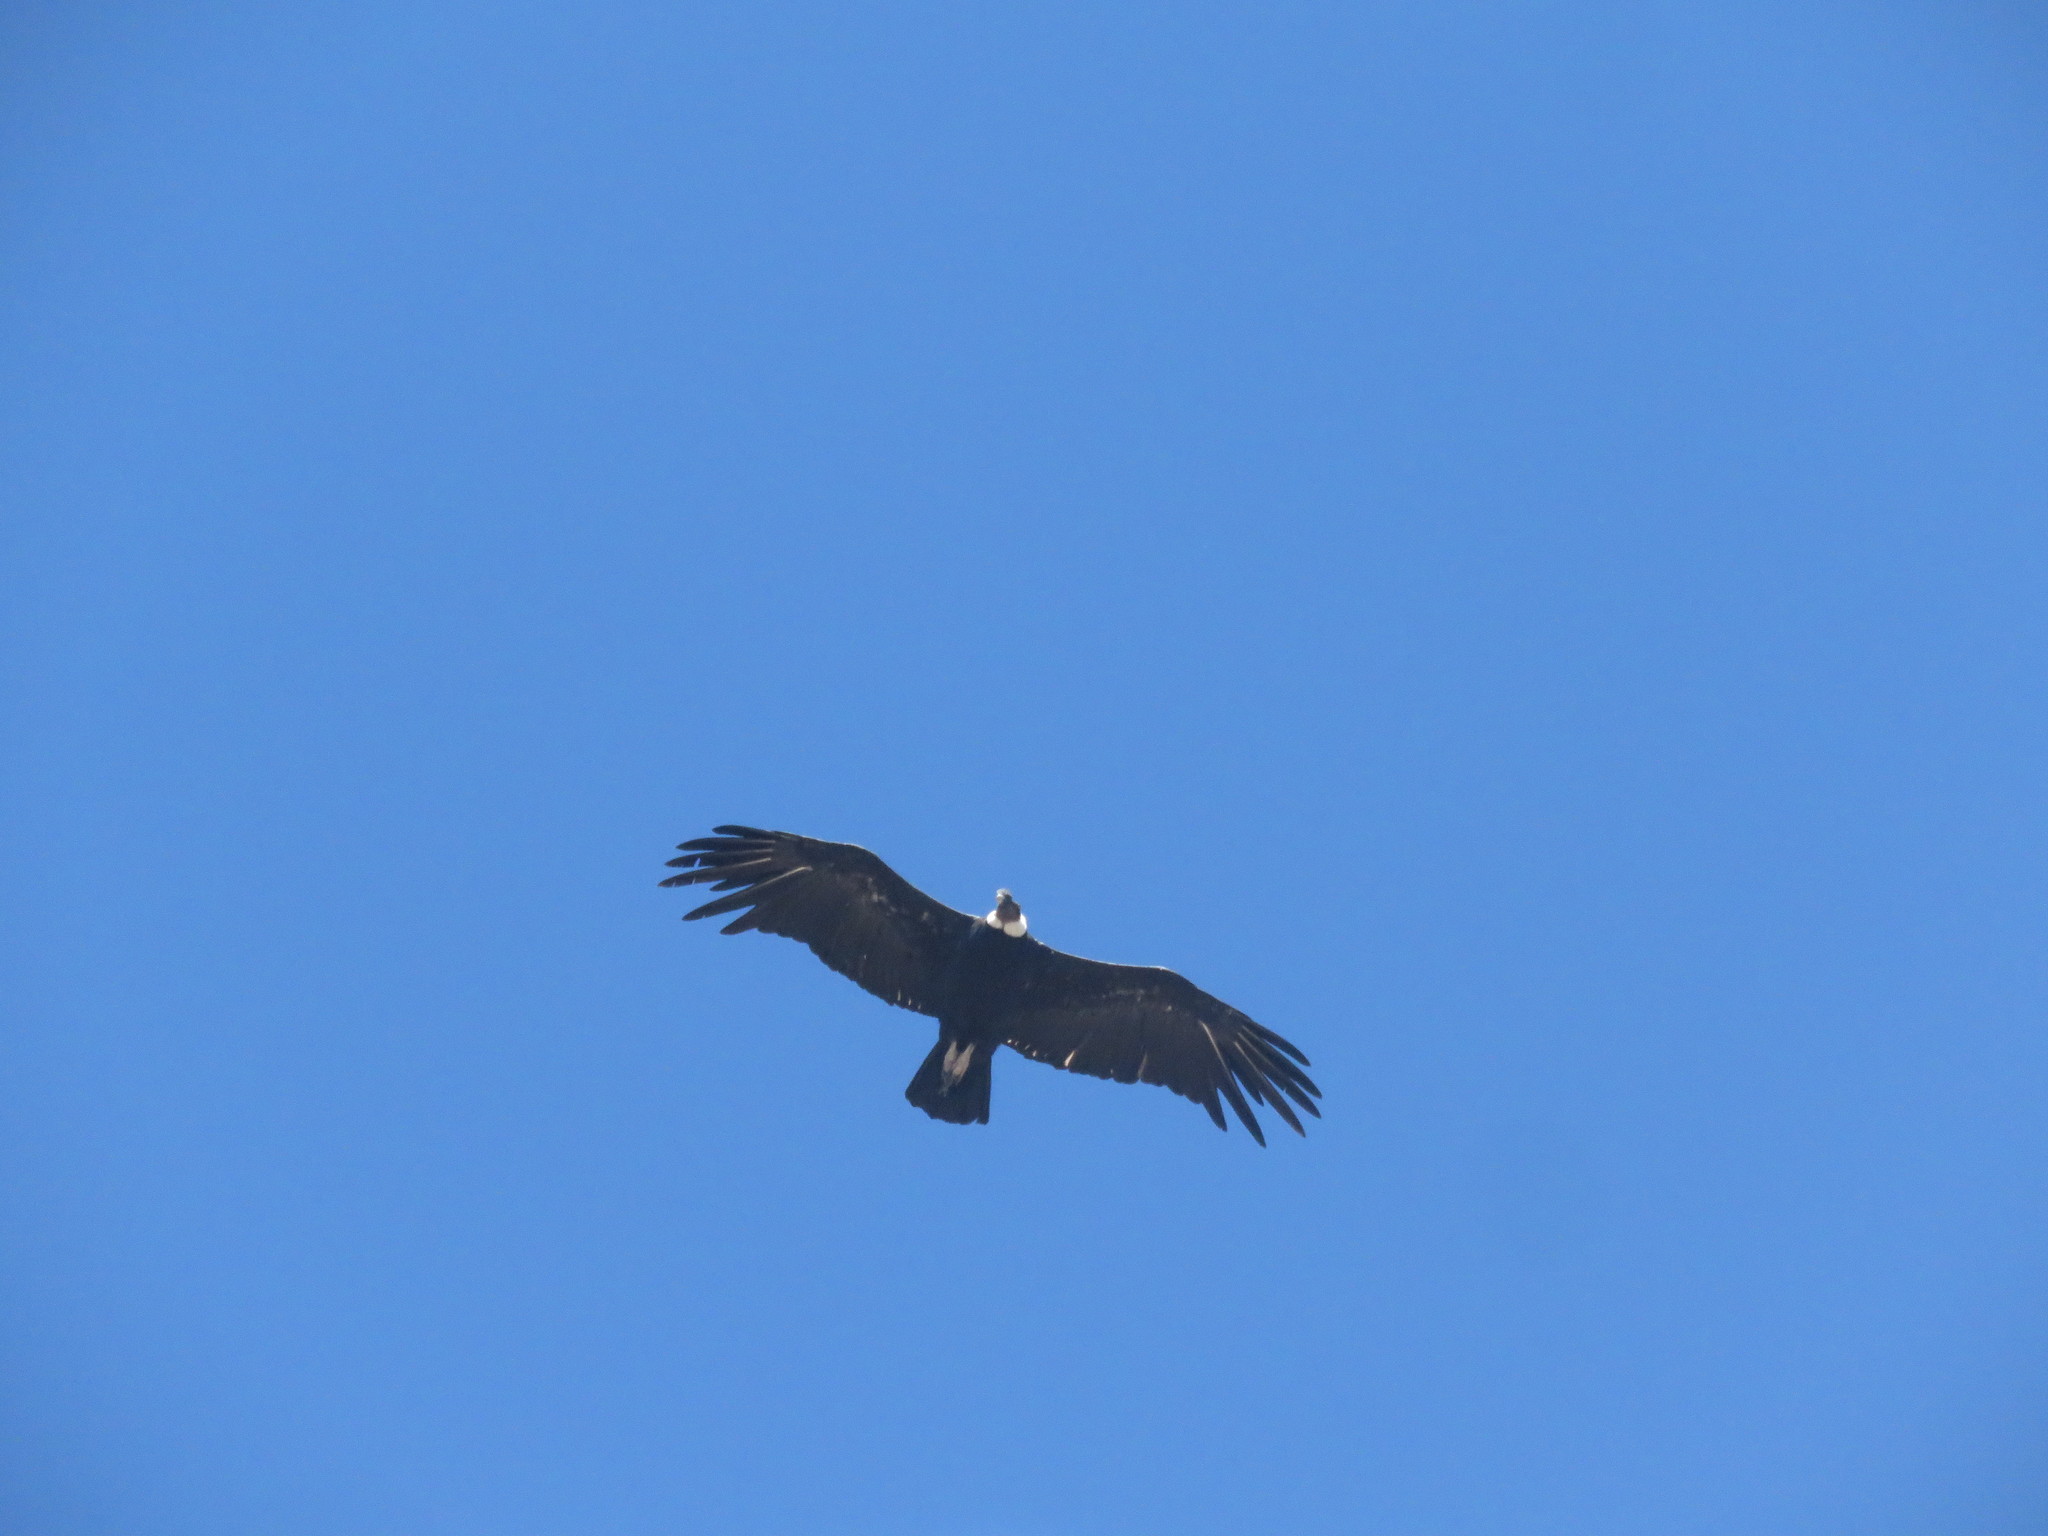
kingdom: Animalia
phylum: Chordata
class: Aves
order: Accipitriformes
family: Cathartidae
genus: Vultur
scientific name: Vultur gryphus
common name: Andean condor
